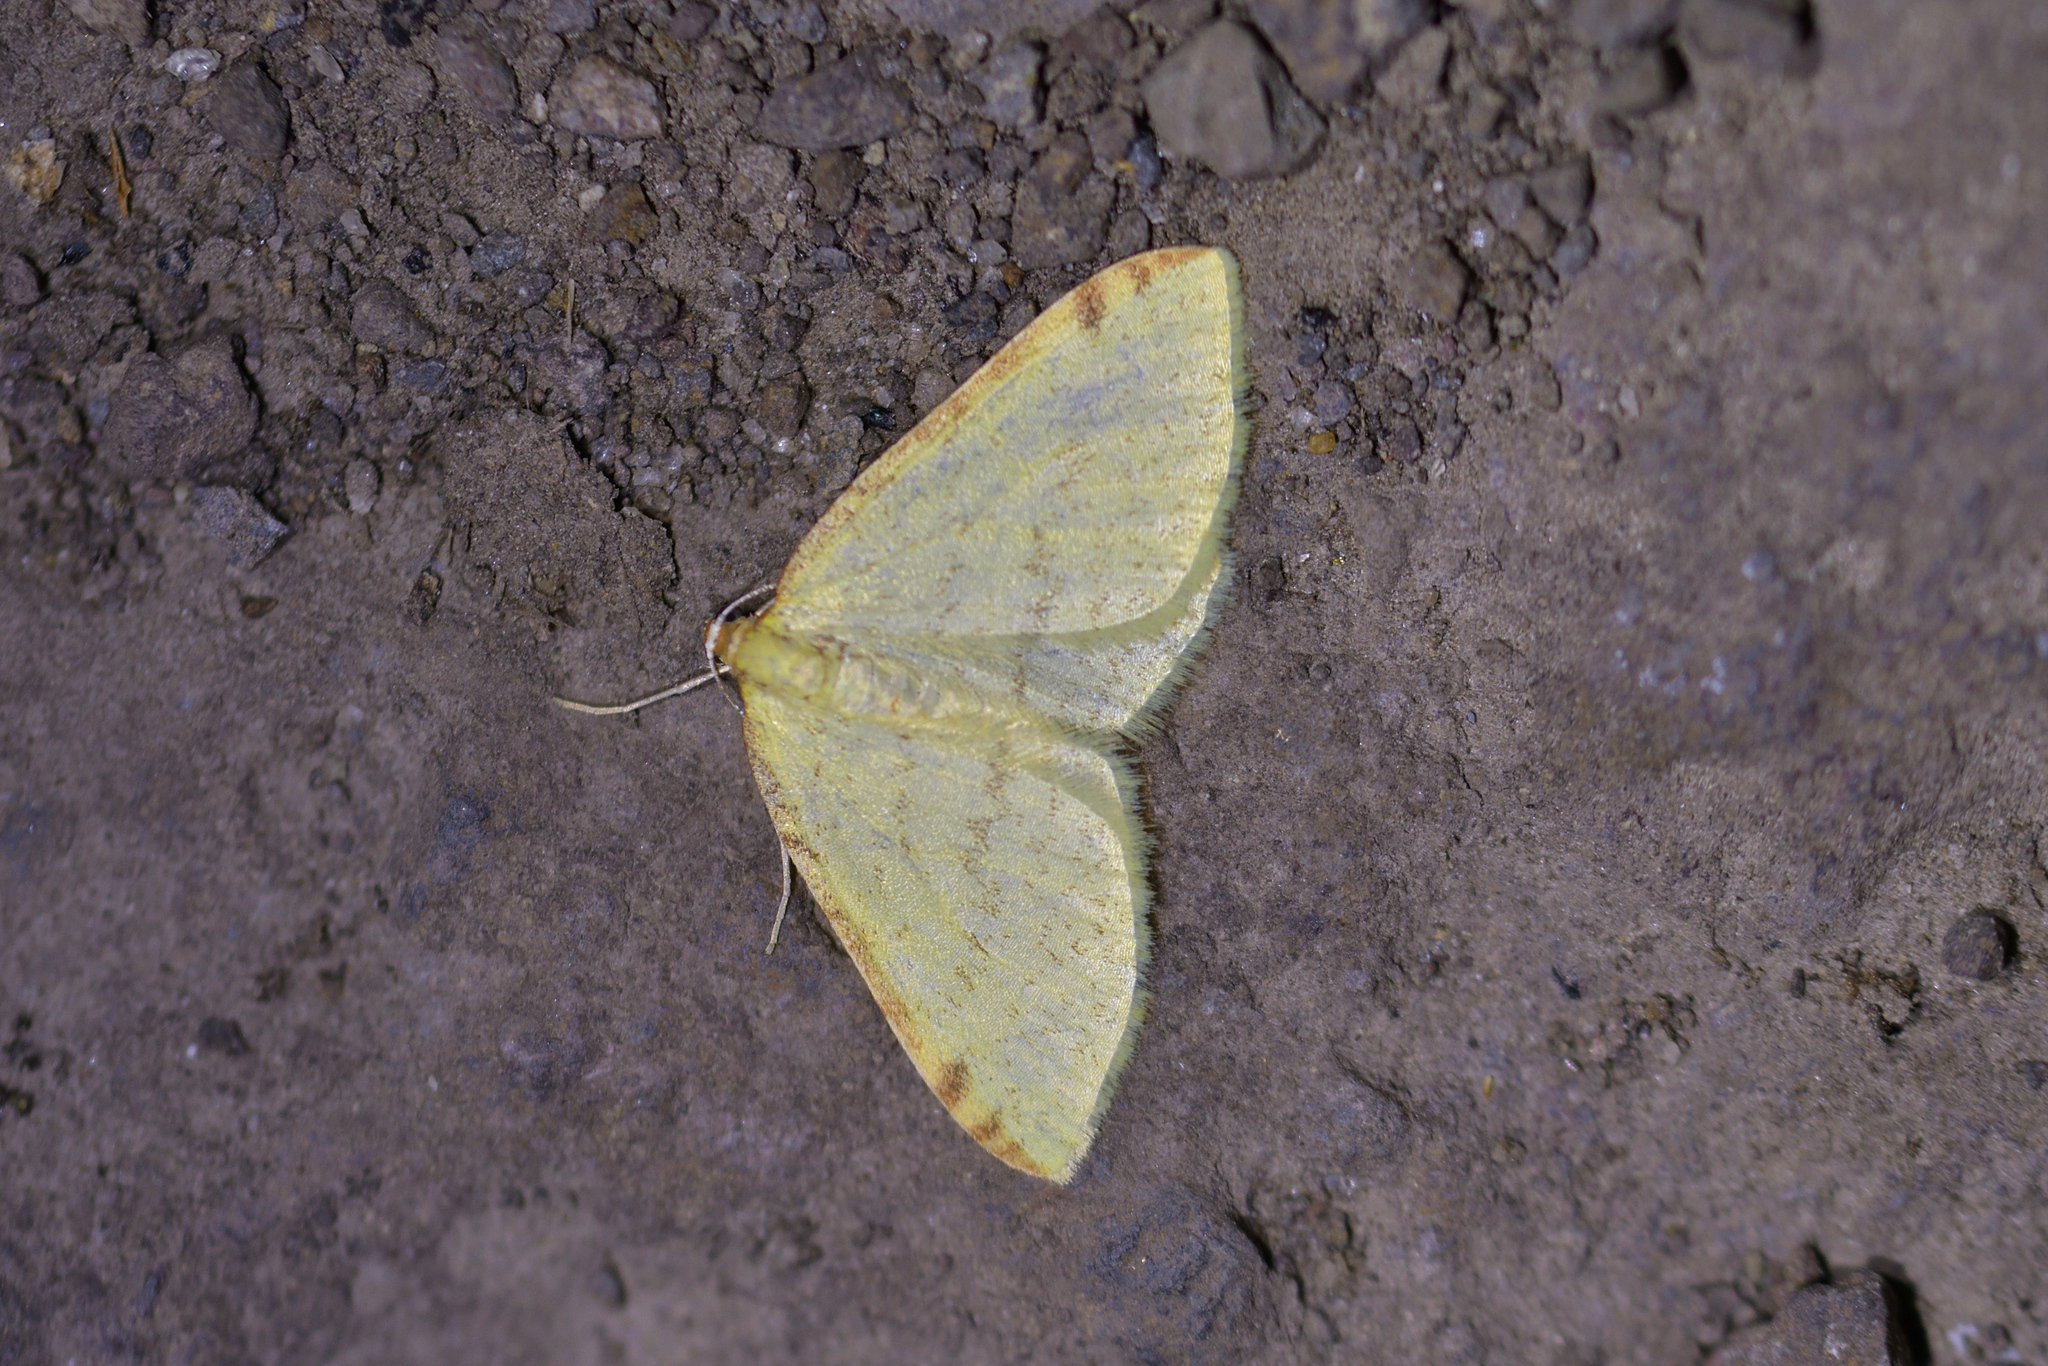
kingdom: Animalia
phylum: Arthropoda
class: Insecta
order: Lepidoptera
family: Geometridae
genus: Epiphryne
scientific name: Epiphryne undosata
